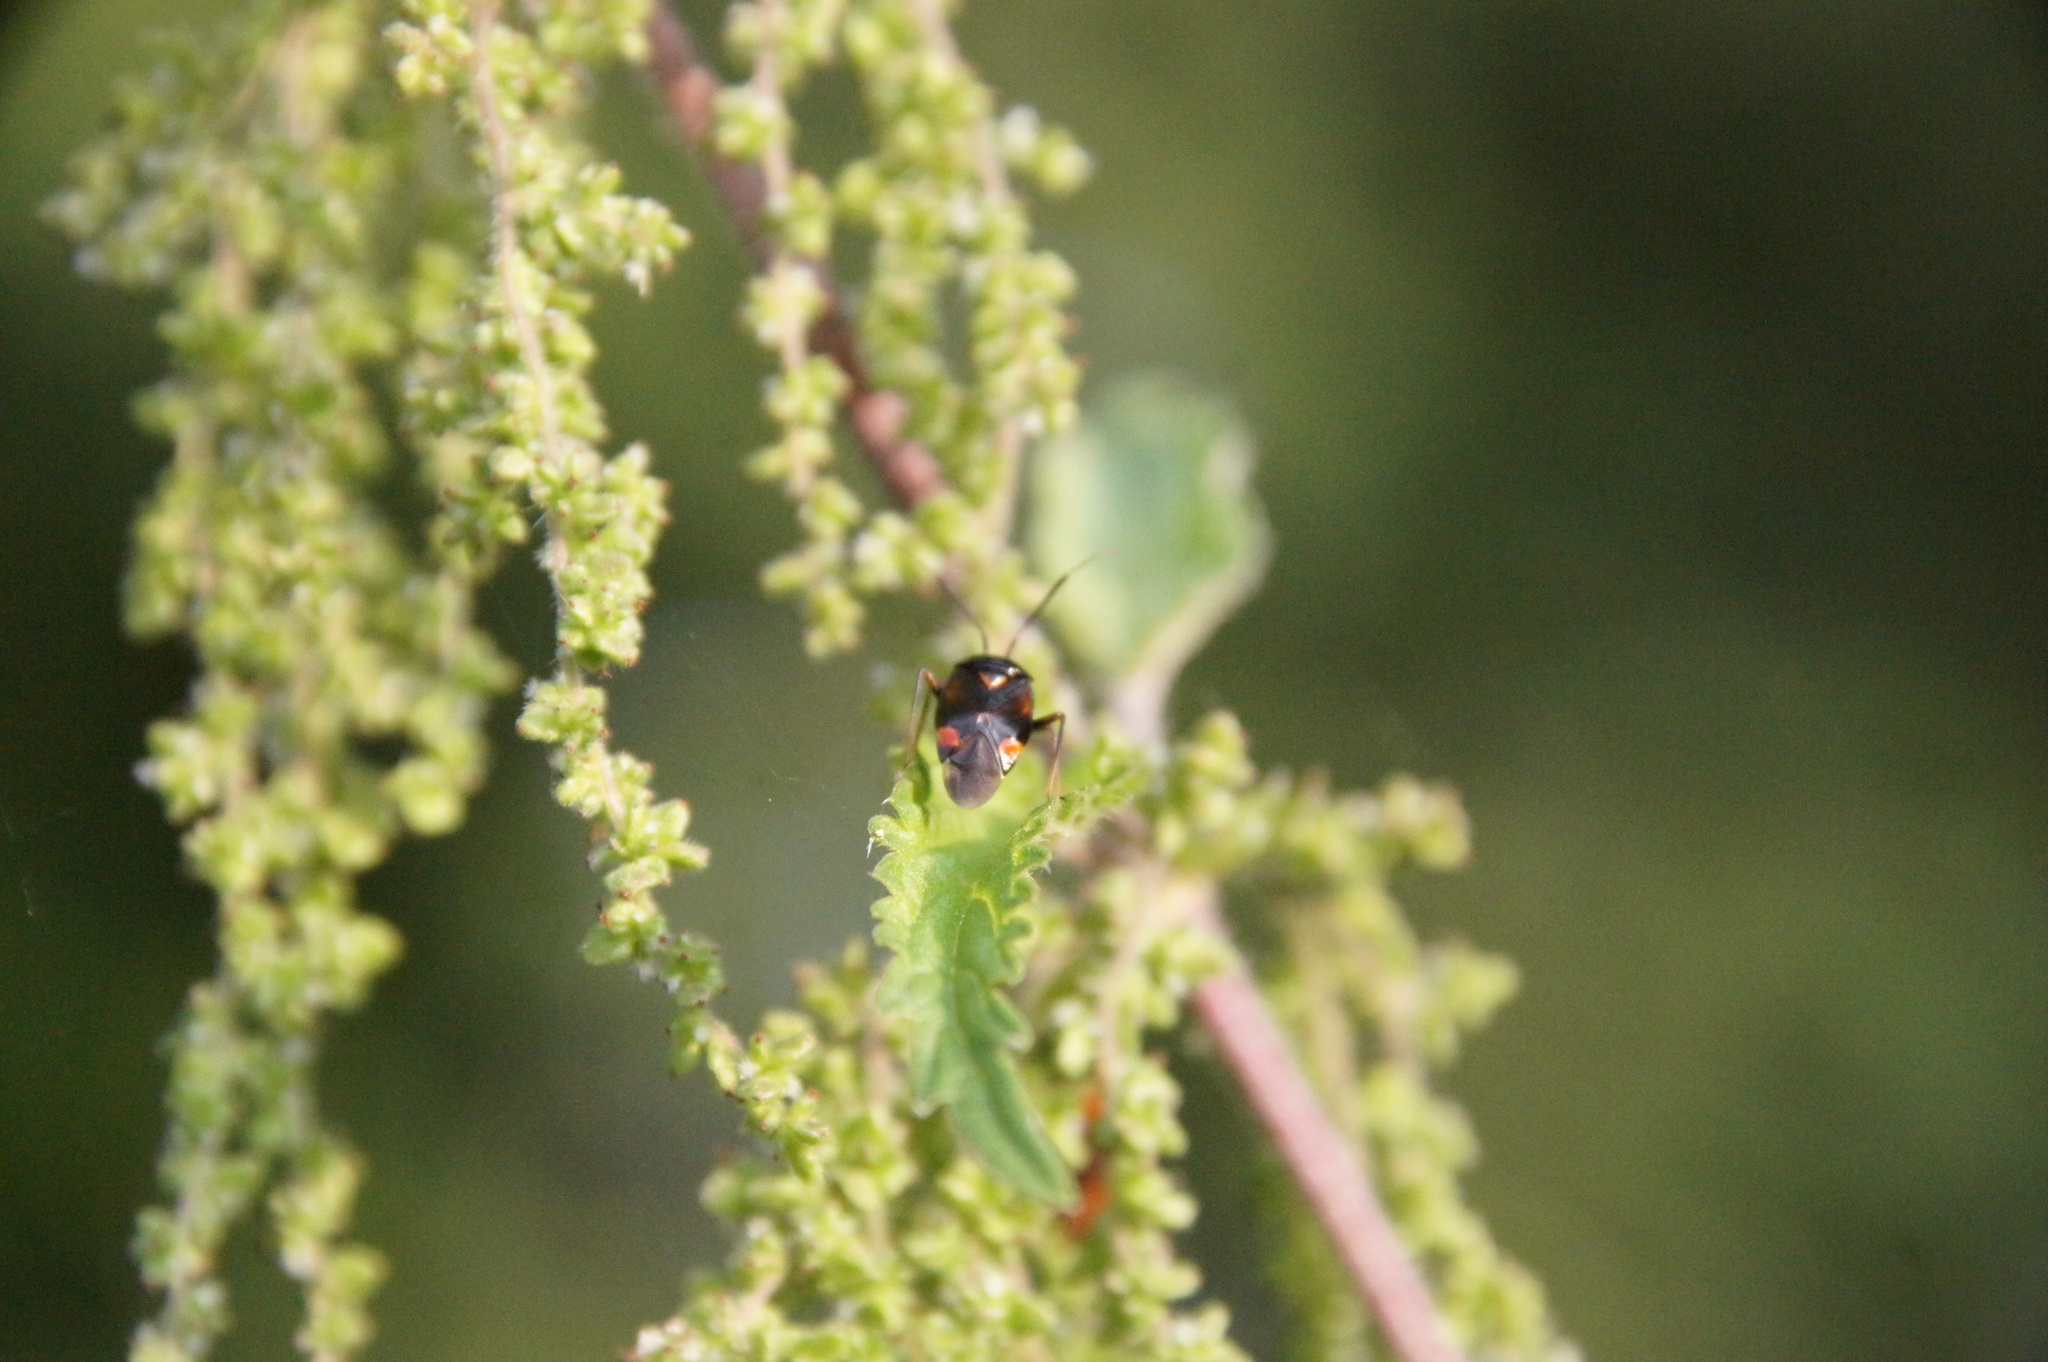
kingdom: Animalia
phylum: Arthropoda
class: Insecta
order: Hemiptera
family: Miridae
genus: Deraeocoris
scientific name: Deraeocoris ruber
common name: Plant bug
